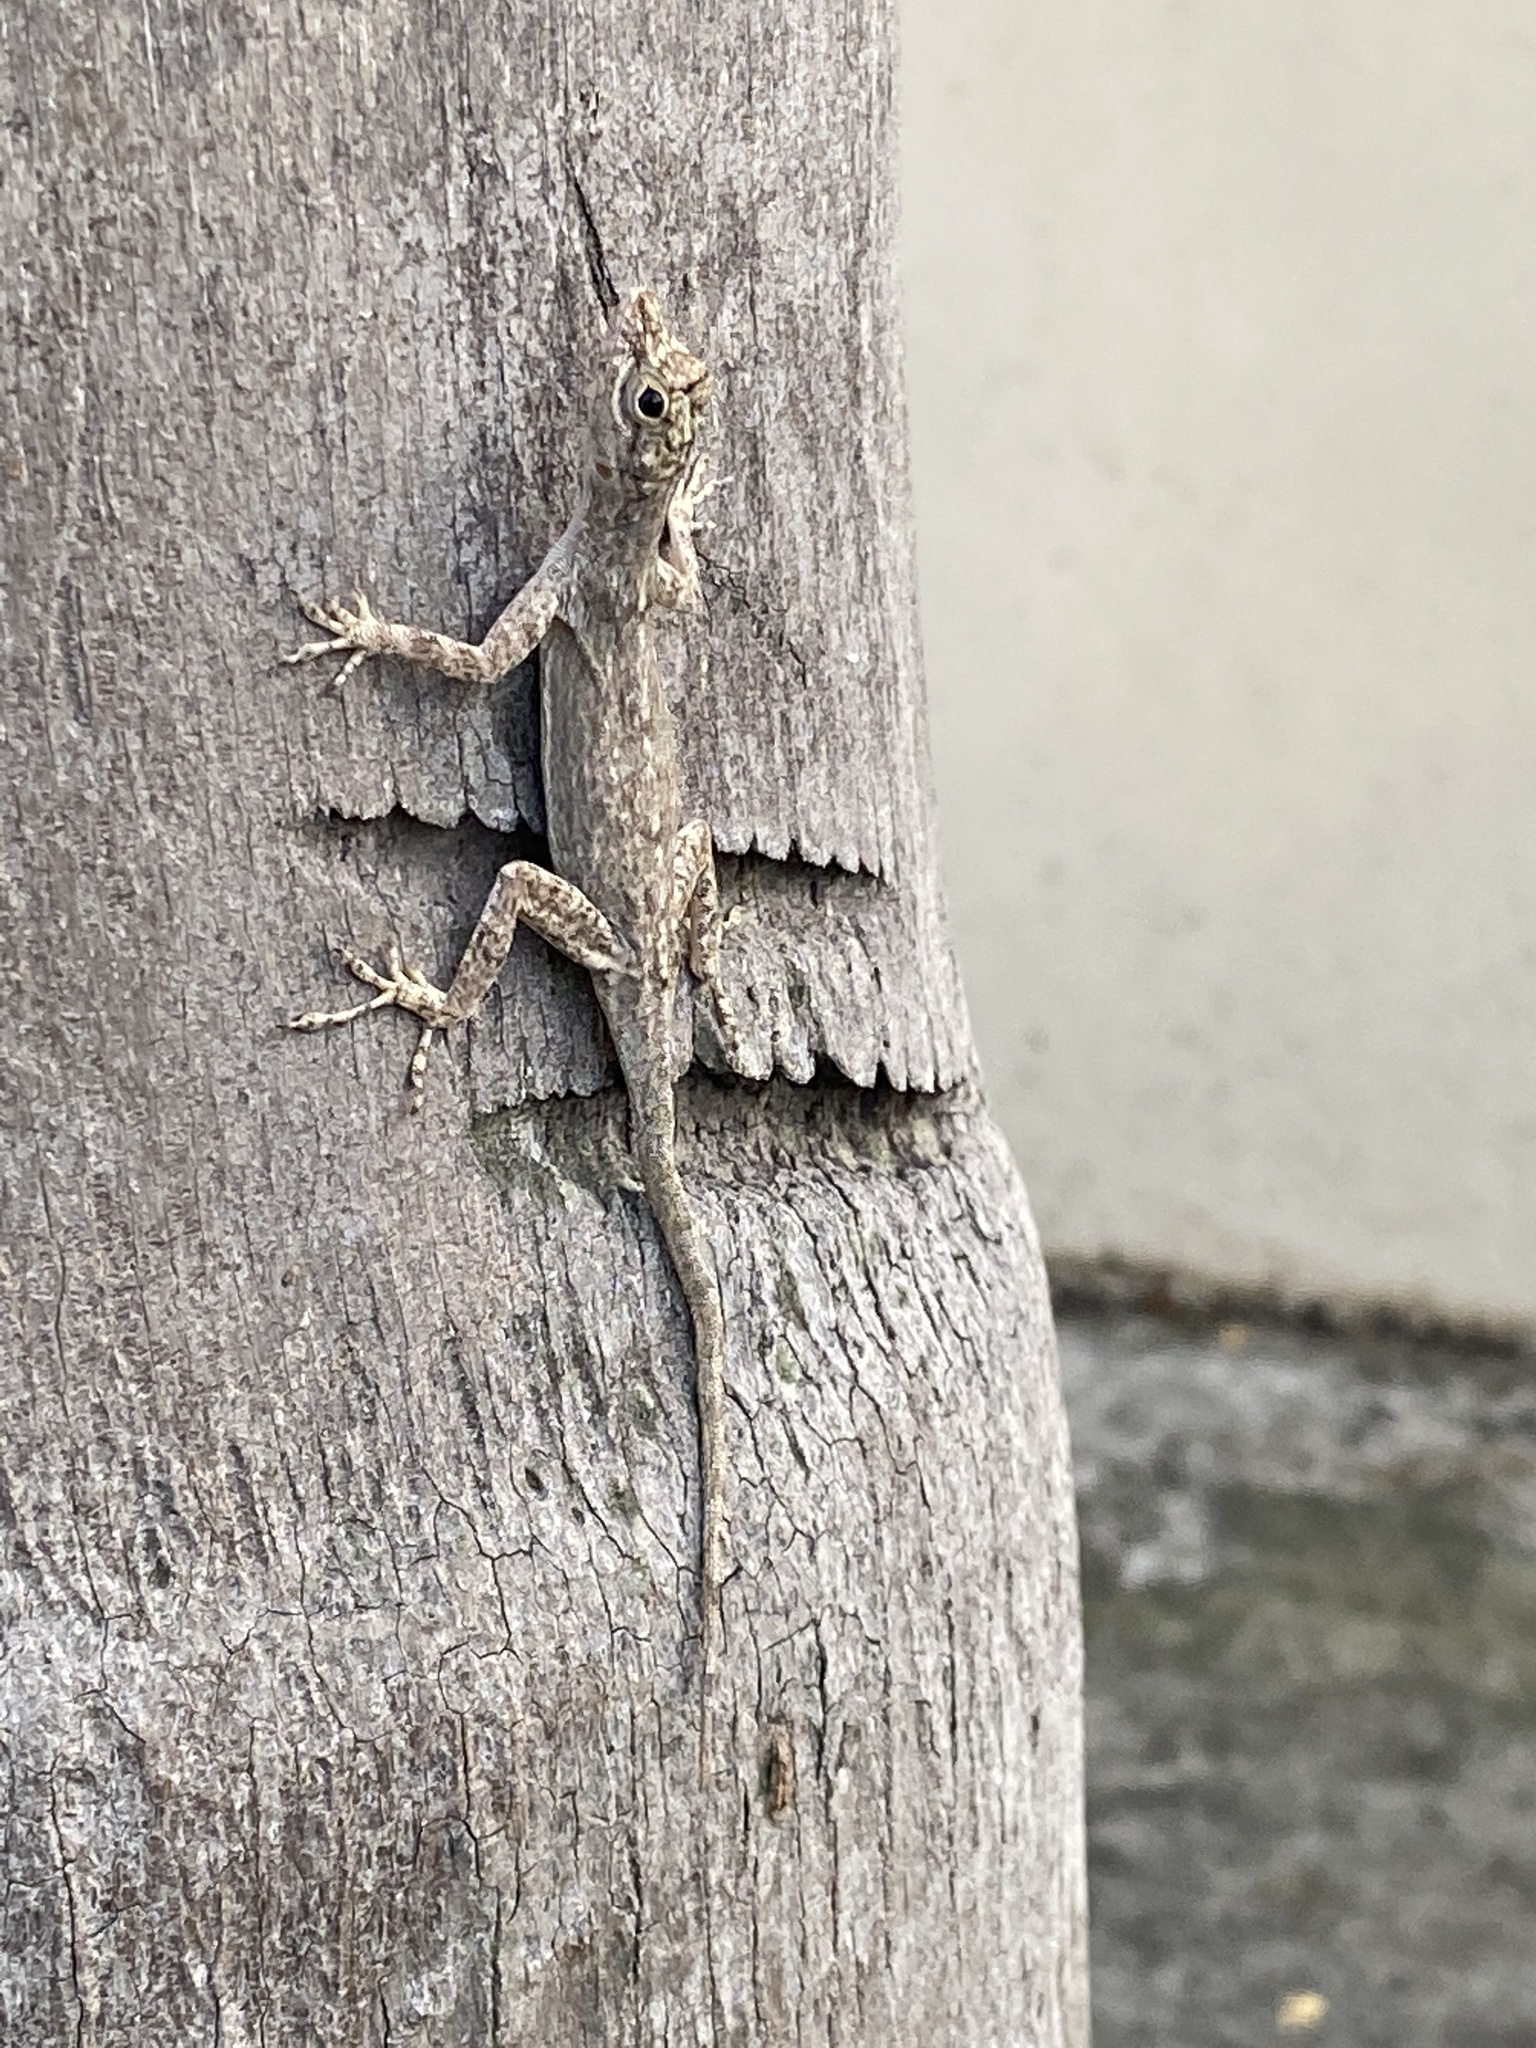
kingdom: Animalia
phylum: Chordata
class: Squamata
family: Dactyloidae
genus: Anolis
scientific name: Anolis distichus
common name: Bark anole
